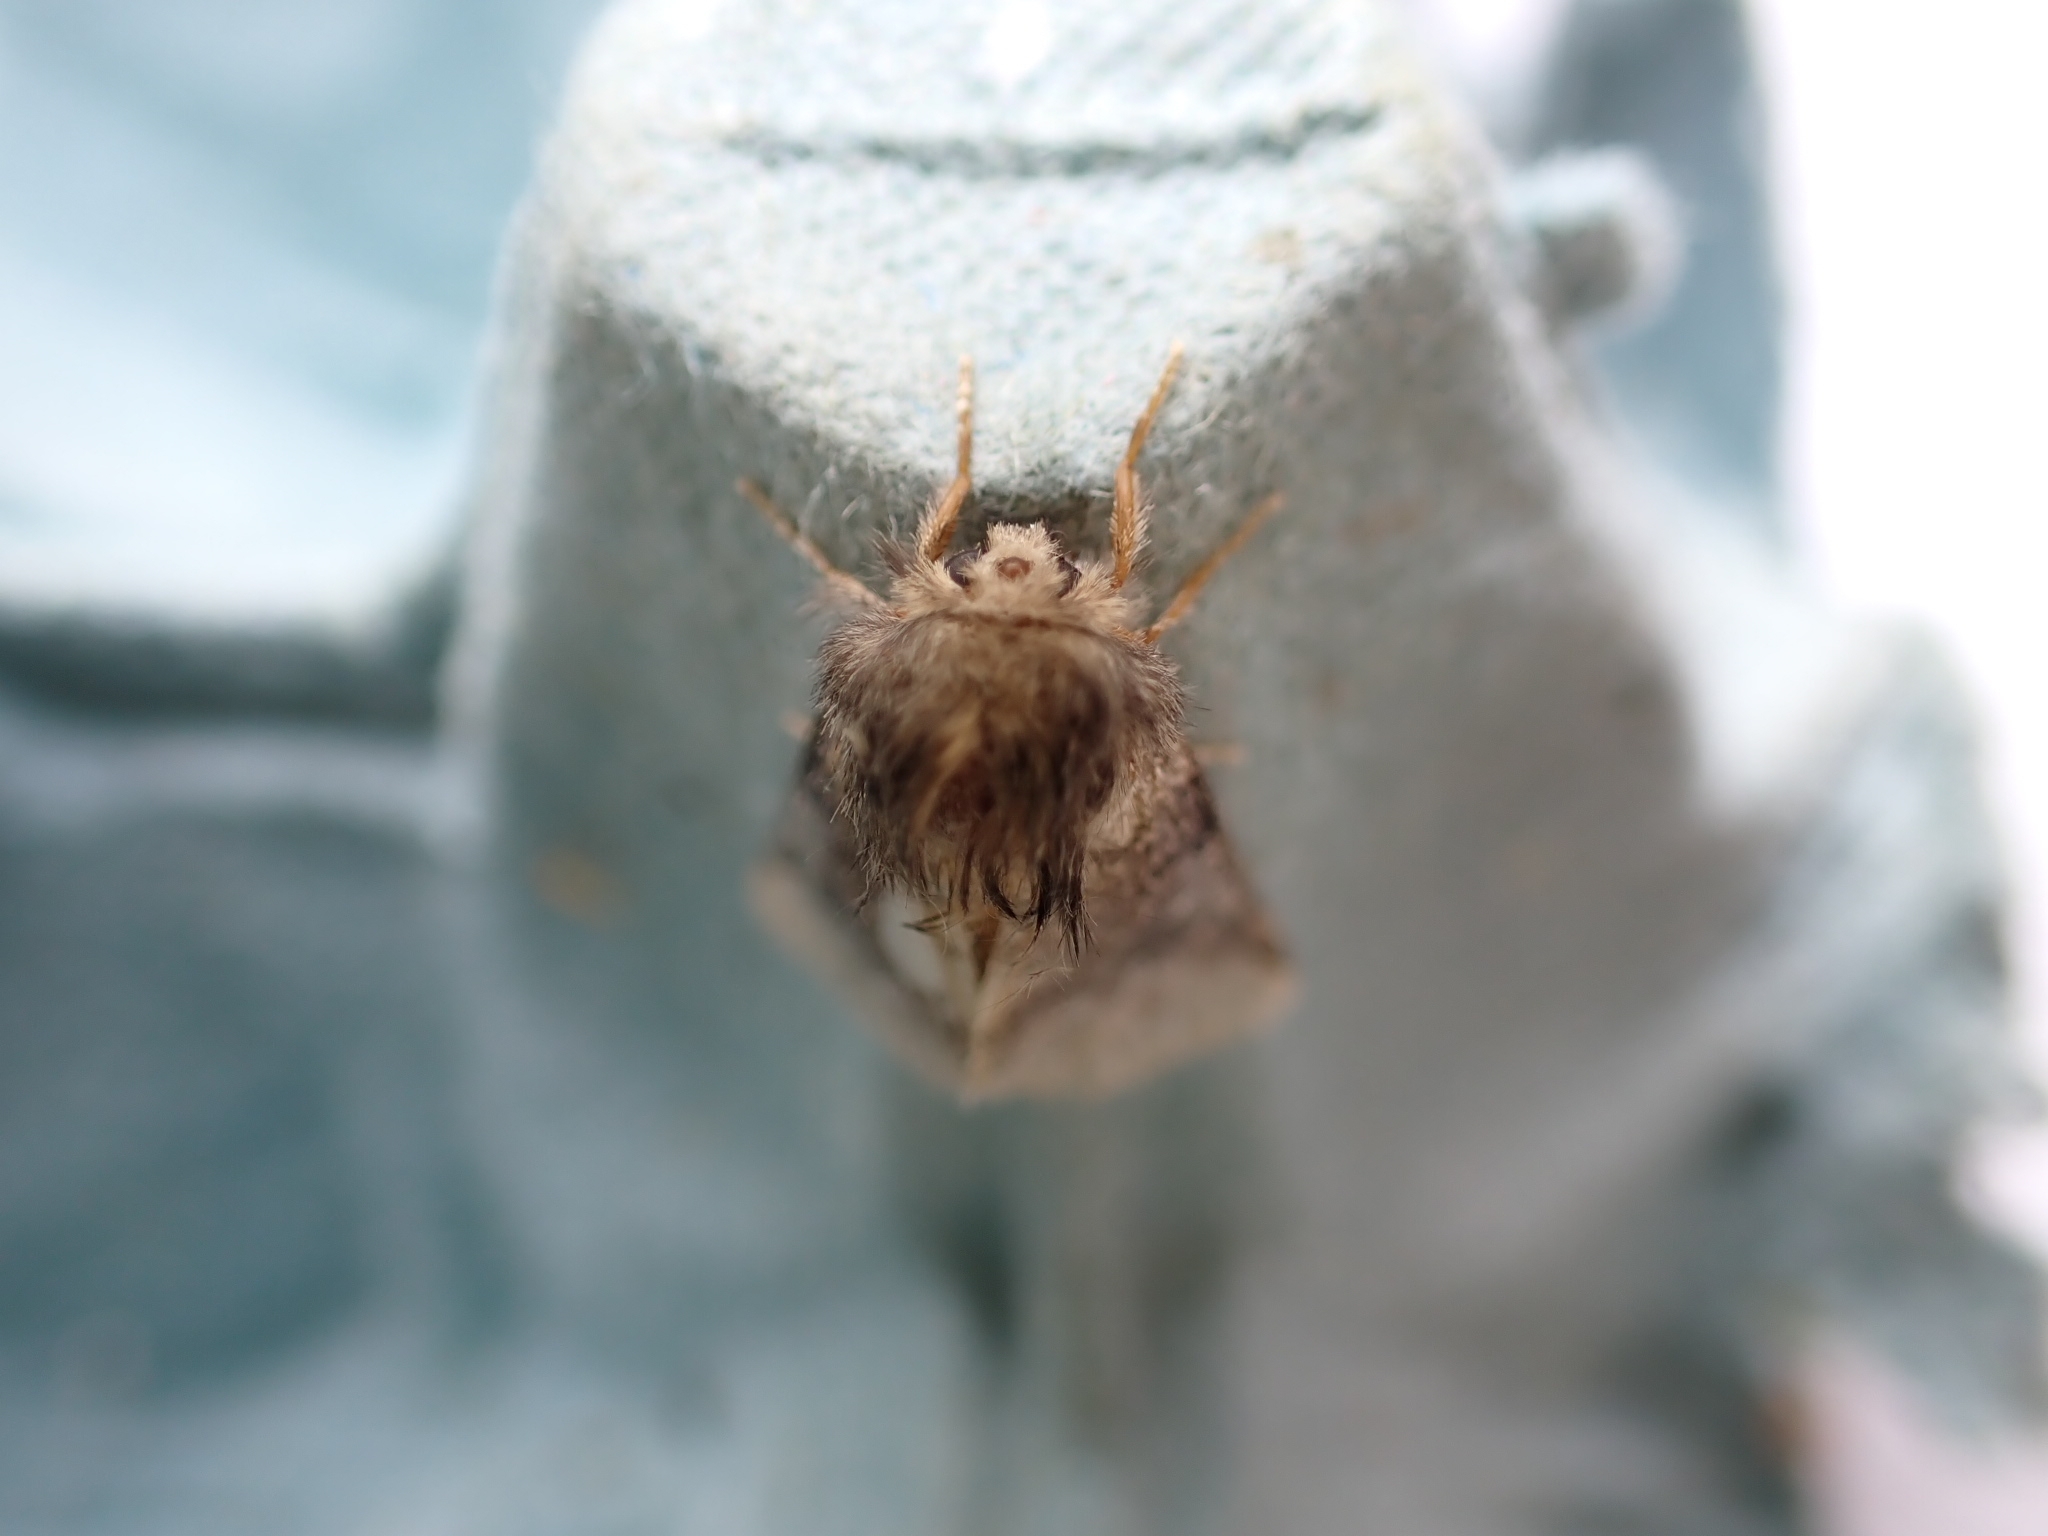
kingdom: Animalia
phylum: Arthropoda
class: Insecta
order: Lepidoptera
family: Notodontidae
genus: Thaumetopoea
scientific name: Thaumetopoea processionea
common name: Oak processionea
